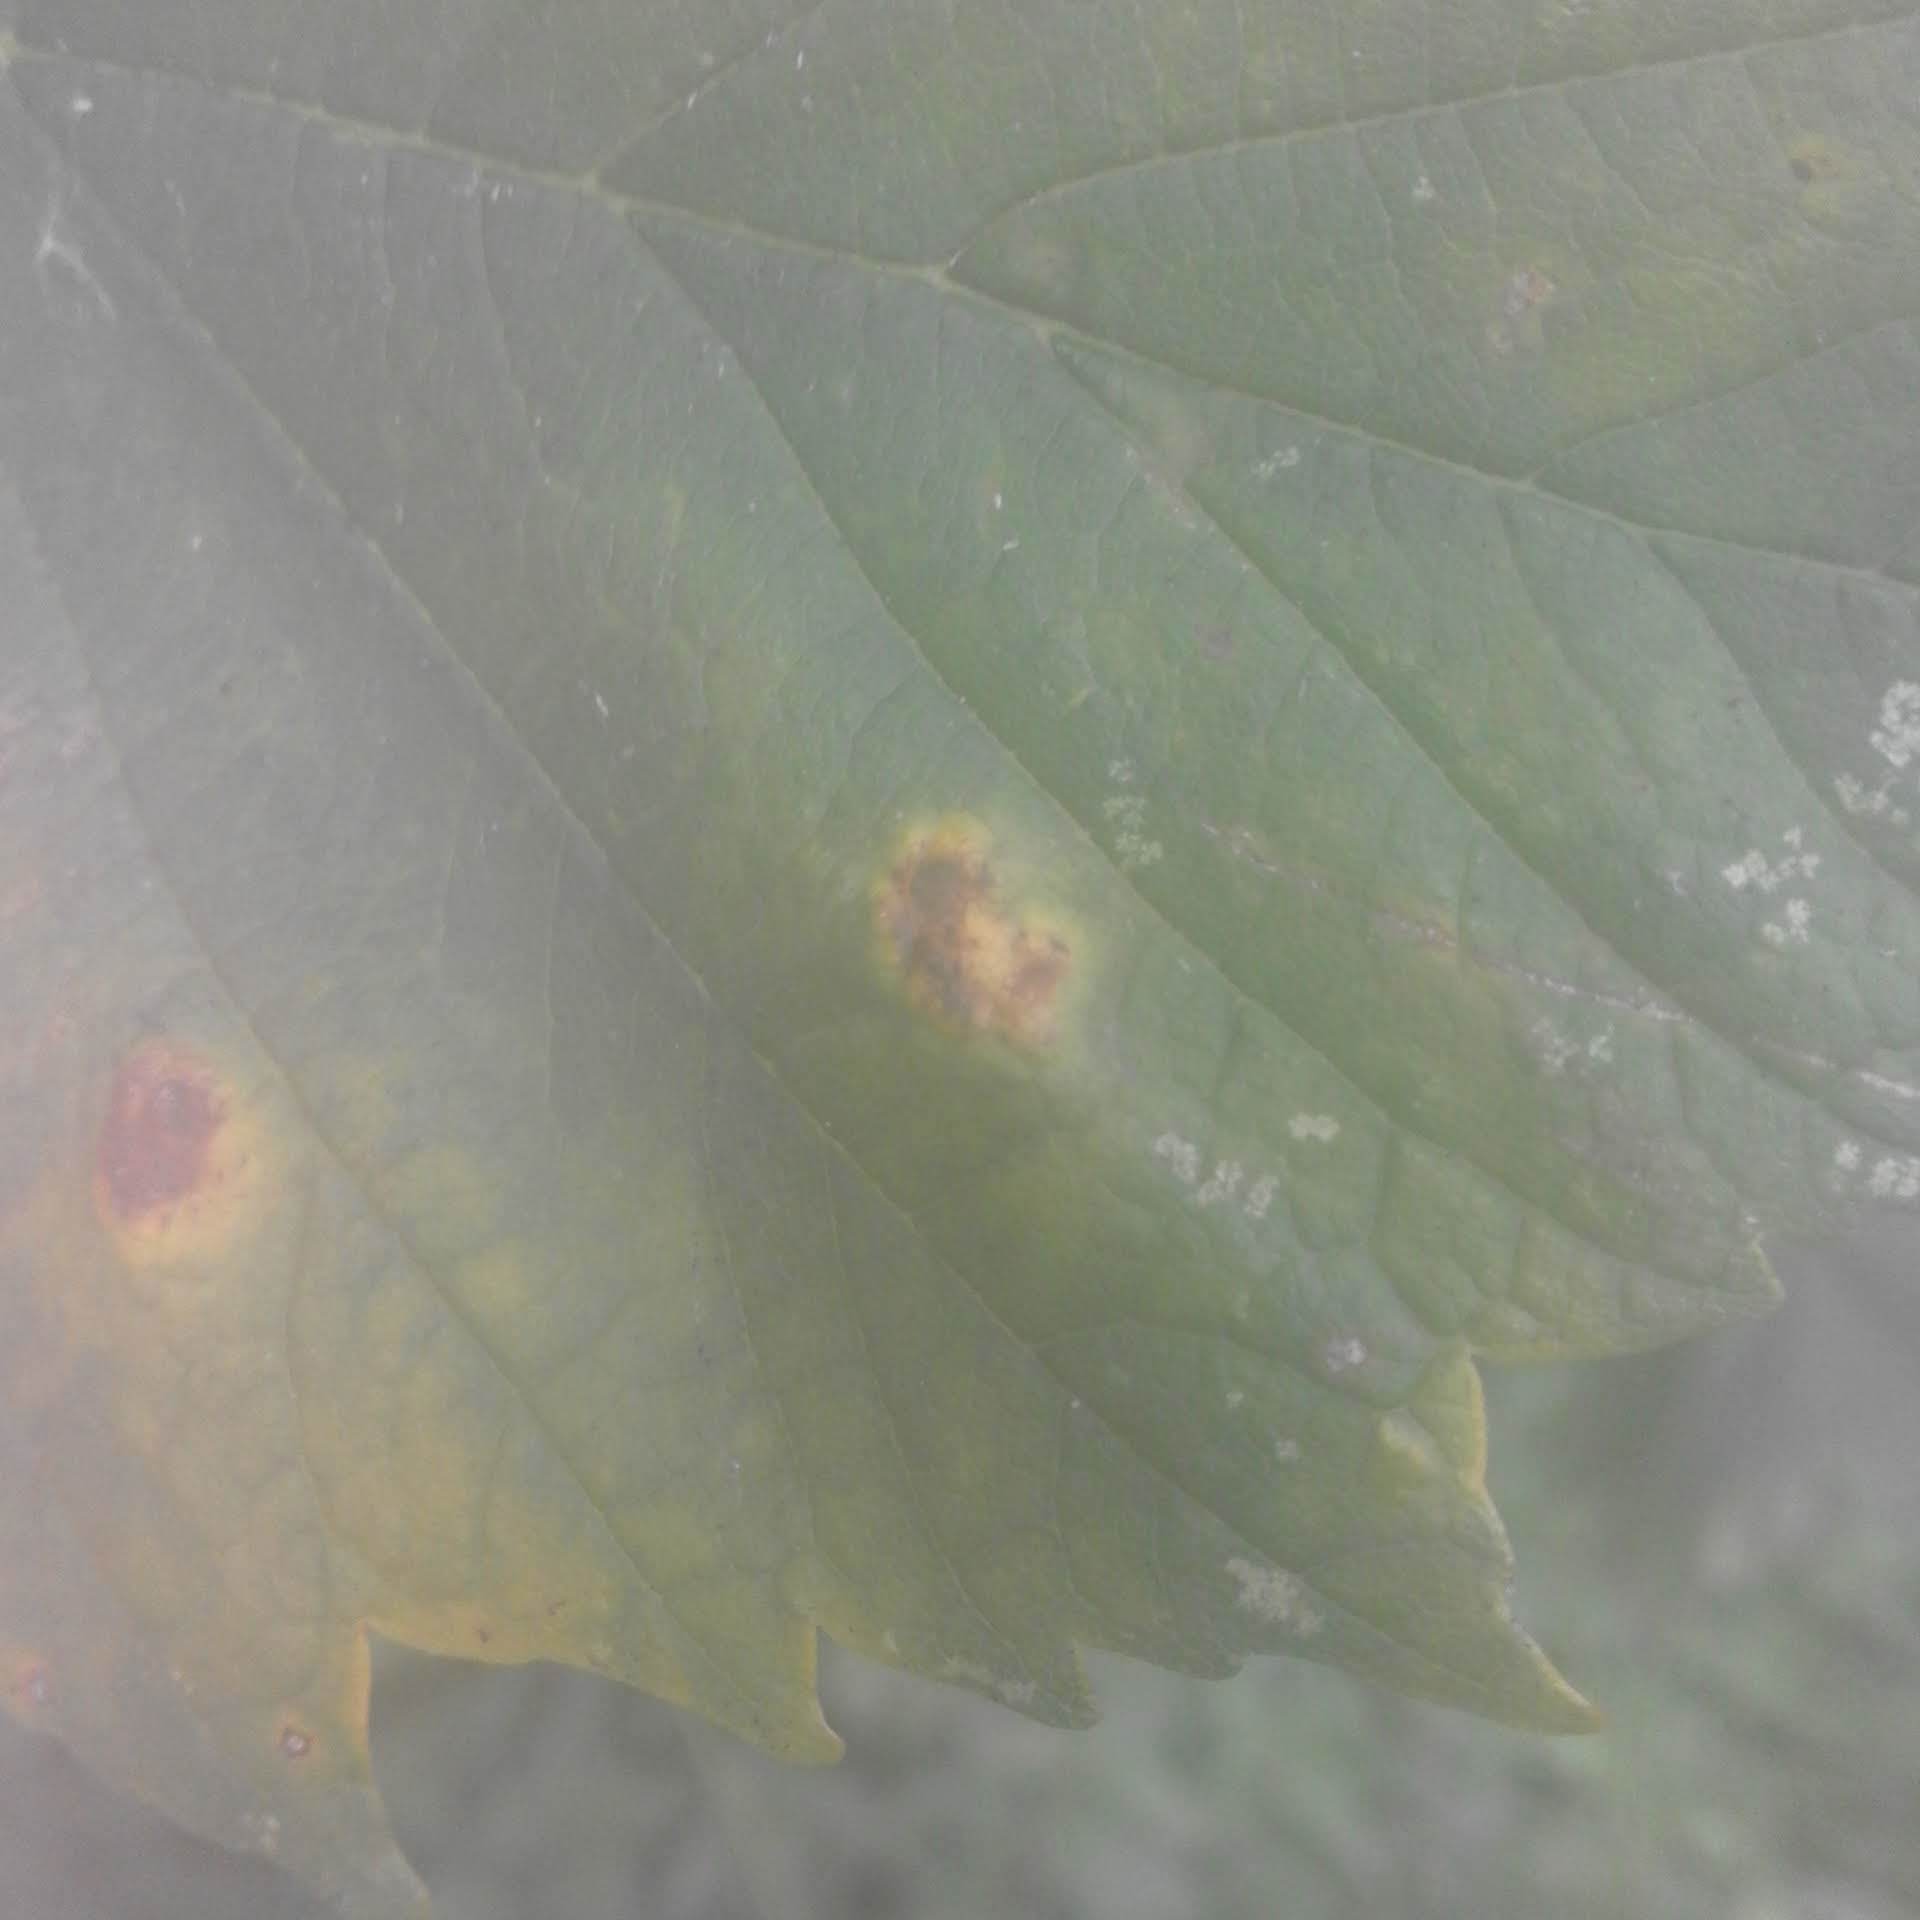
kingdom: Animalia
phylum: Arthropoda
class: Arachnida
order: Trombidiformes
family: Eriophyidae
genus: Aceria
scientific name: Aceria pseudoplatani
